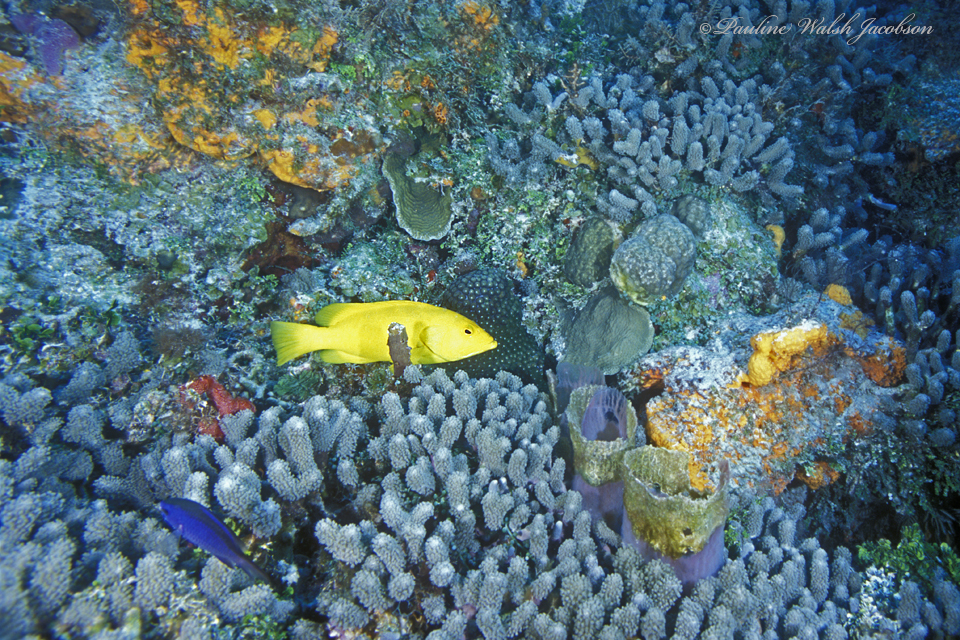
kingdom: Animalia
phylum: Chordata
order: Perciformes
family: Serranidae
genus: Cephalopholis
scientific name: Cephalopholis fulva
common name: Butterfish
